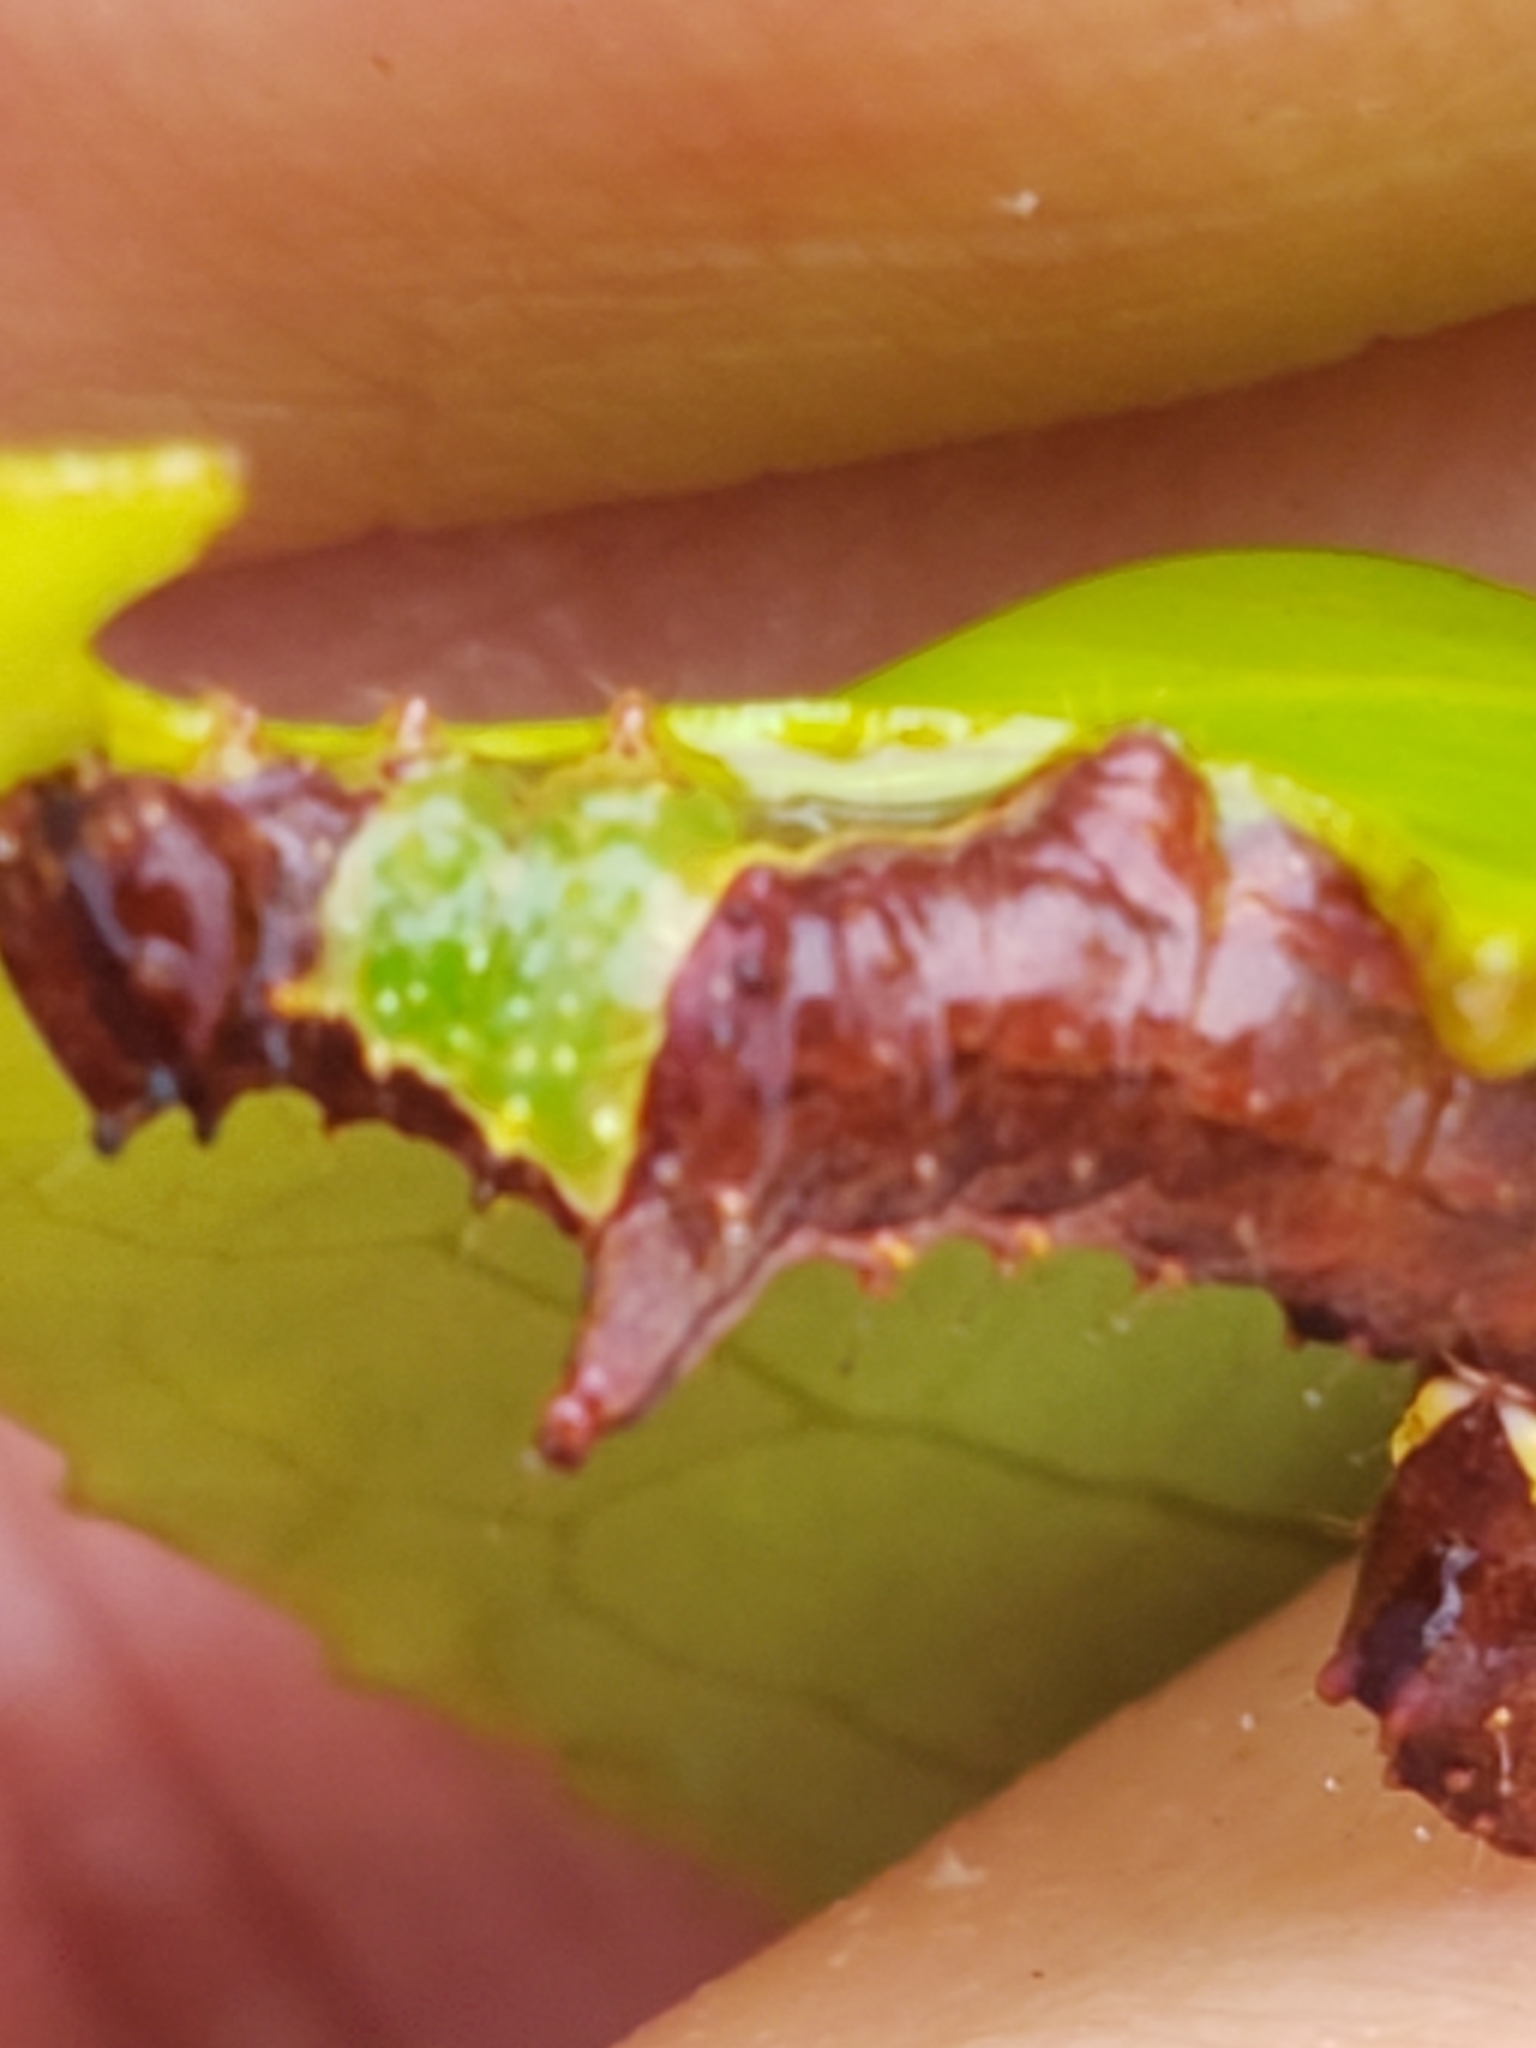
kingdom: Animalia
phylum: Arthropoda
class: Insecta
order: Lepidoptera
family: Notodontidae
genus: Schizura
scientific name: Schizura
